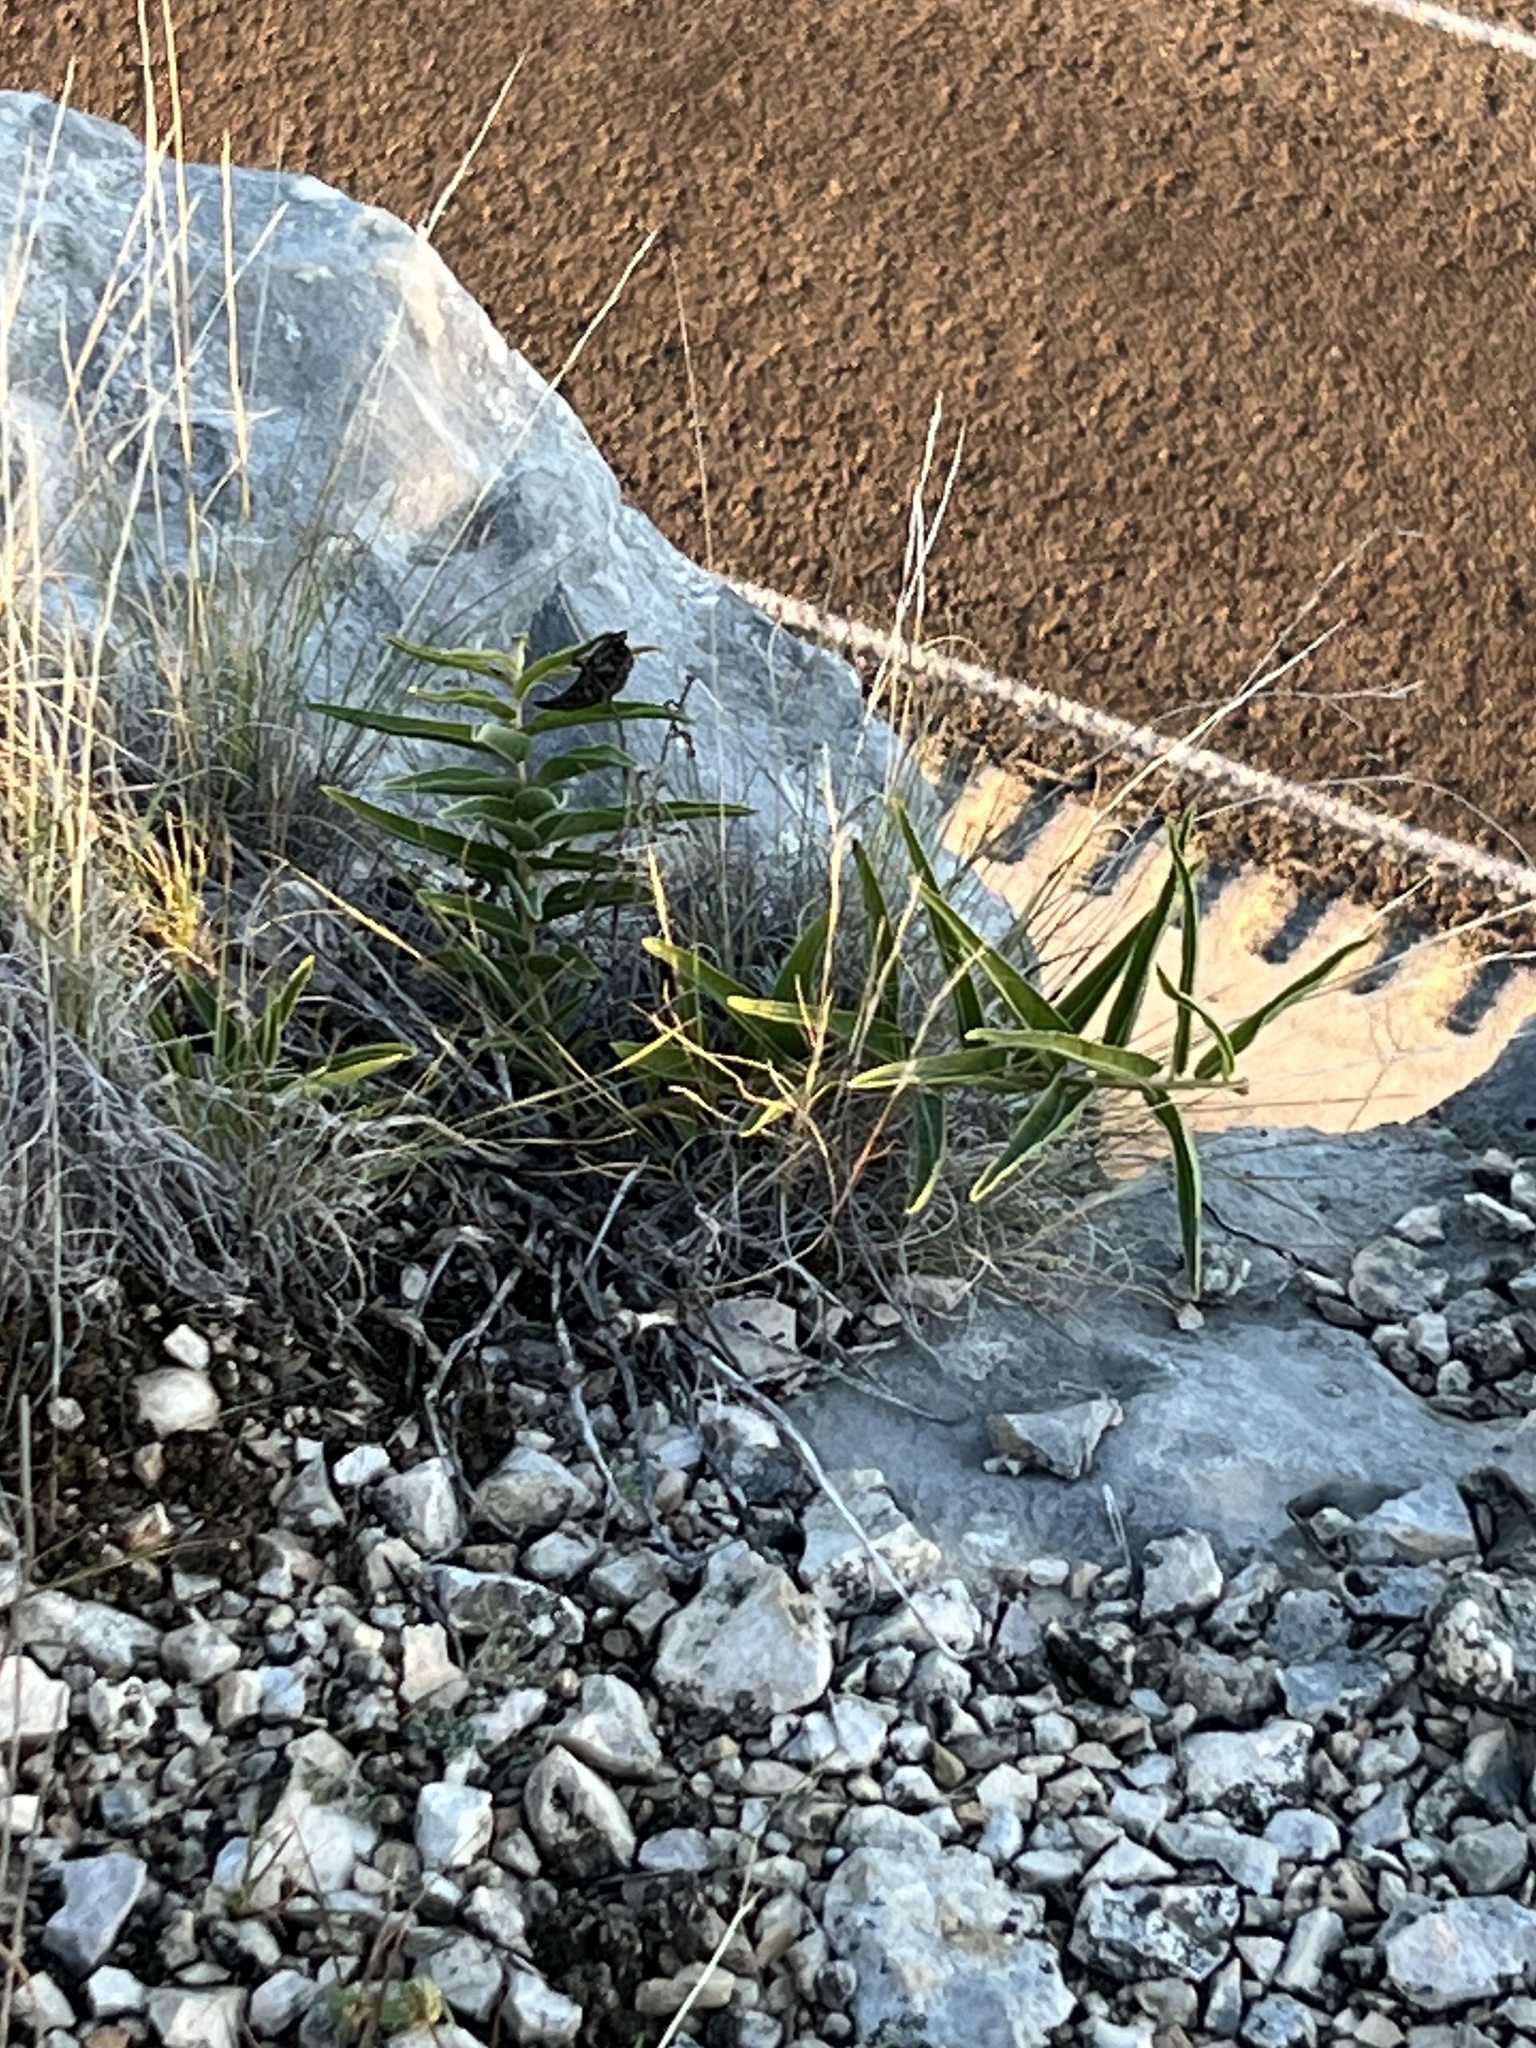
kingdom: Plantae
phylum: Tracheophyta
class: Magnoliopsida
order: Gentianales
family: Apocynaceae
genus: Asclepias
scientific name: Asclepias asperula
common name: Antelope horns
